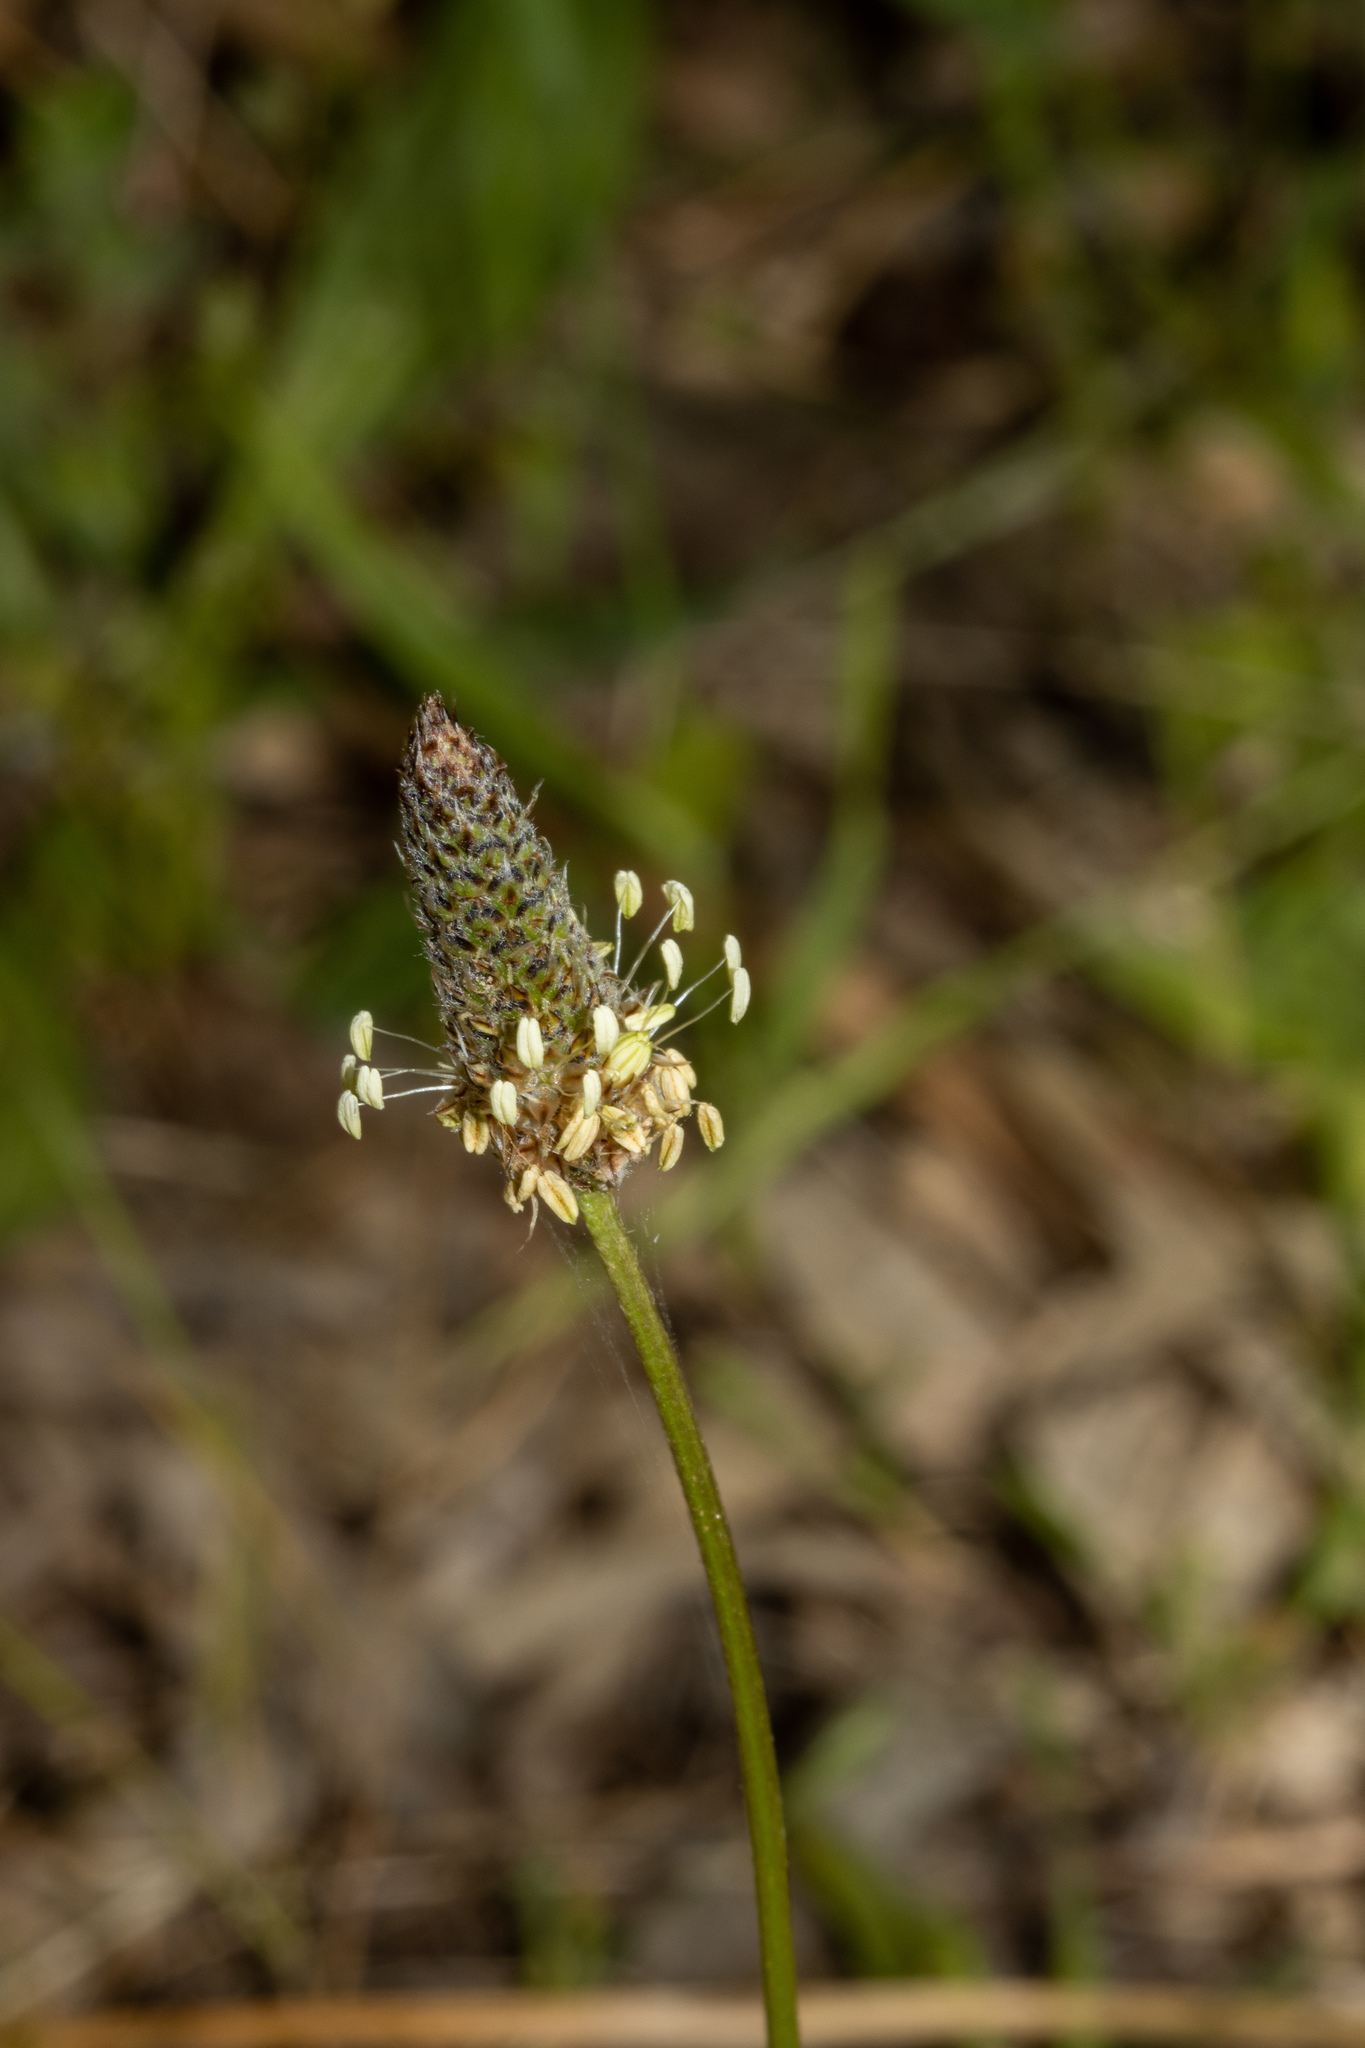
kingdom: Plantae
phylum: Tracheophyta
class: Magnoliopsida
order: Lamiales
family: Plantaginaceae
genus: Plantago
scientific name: Plantago lanceolata
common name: Ribwort plantain
